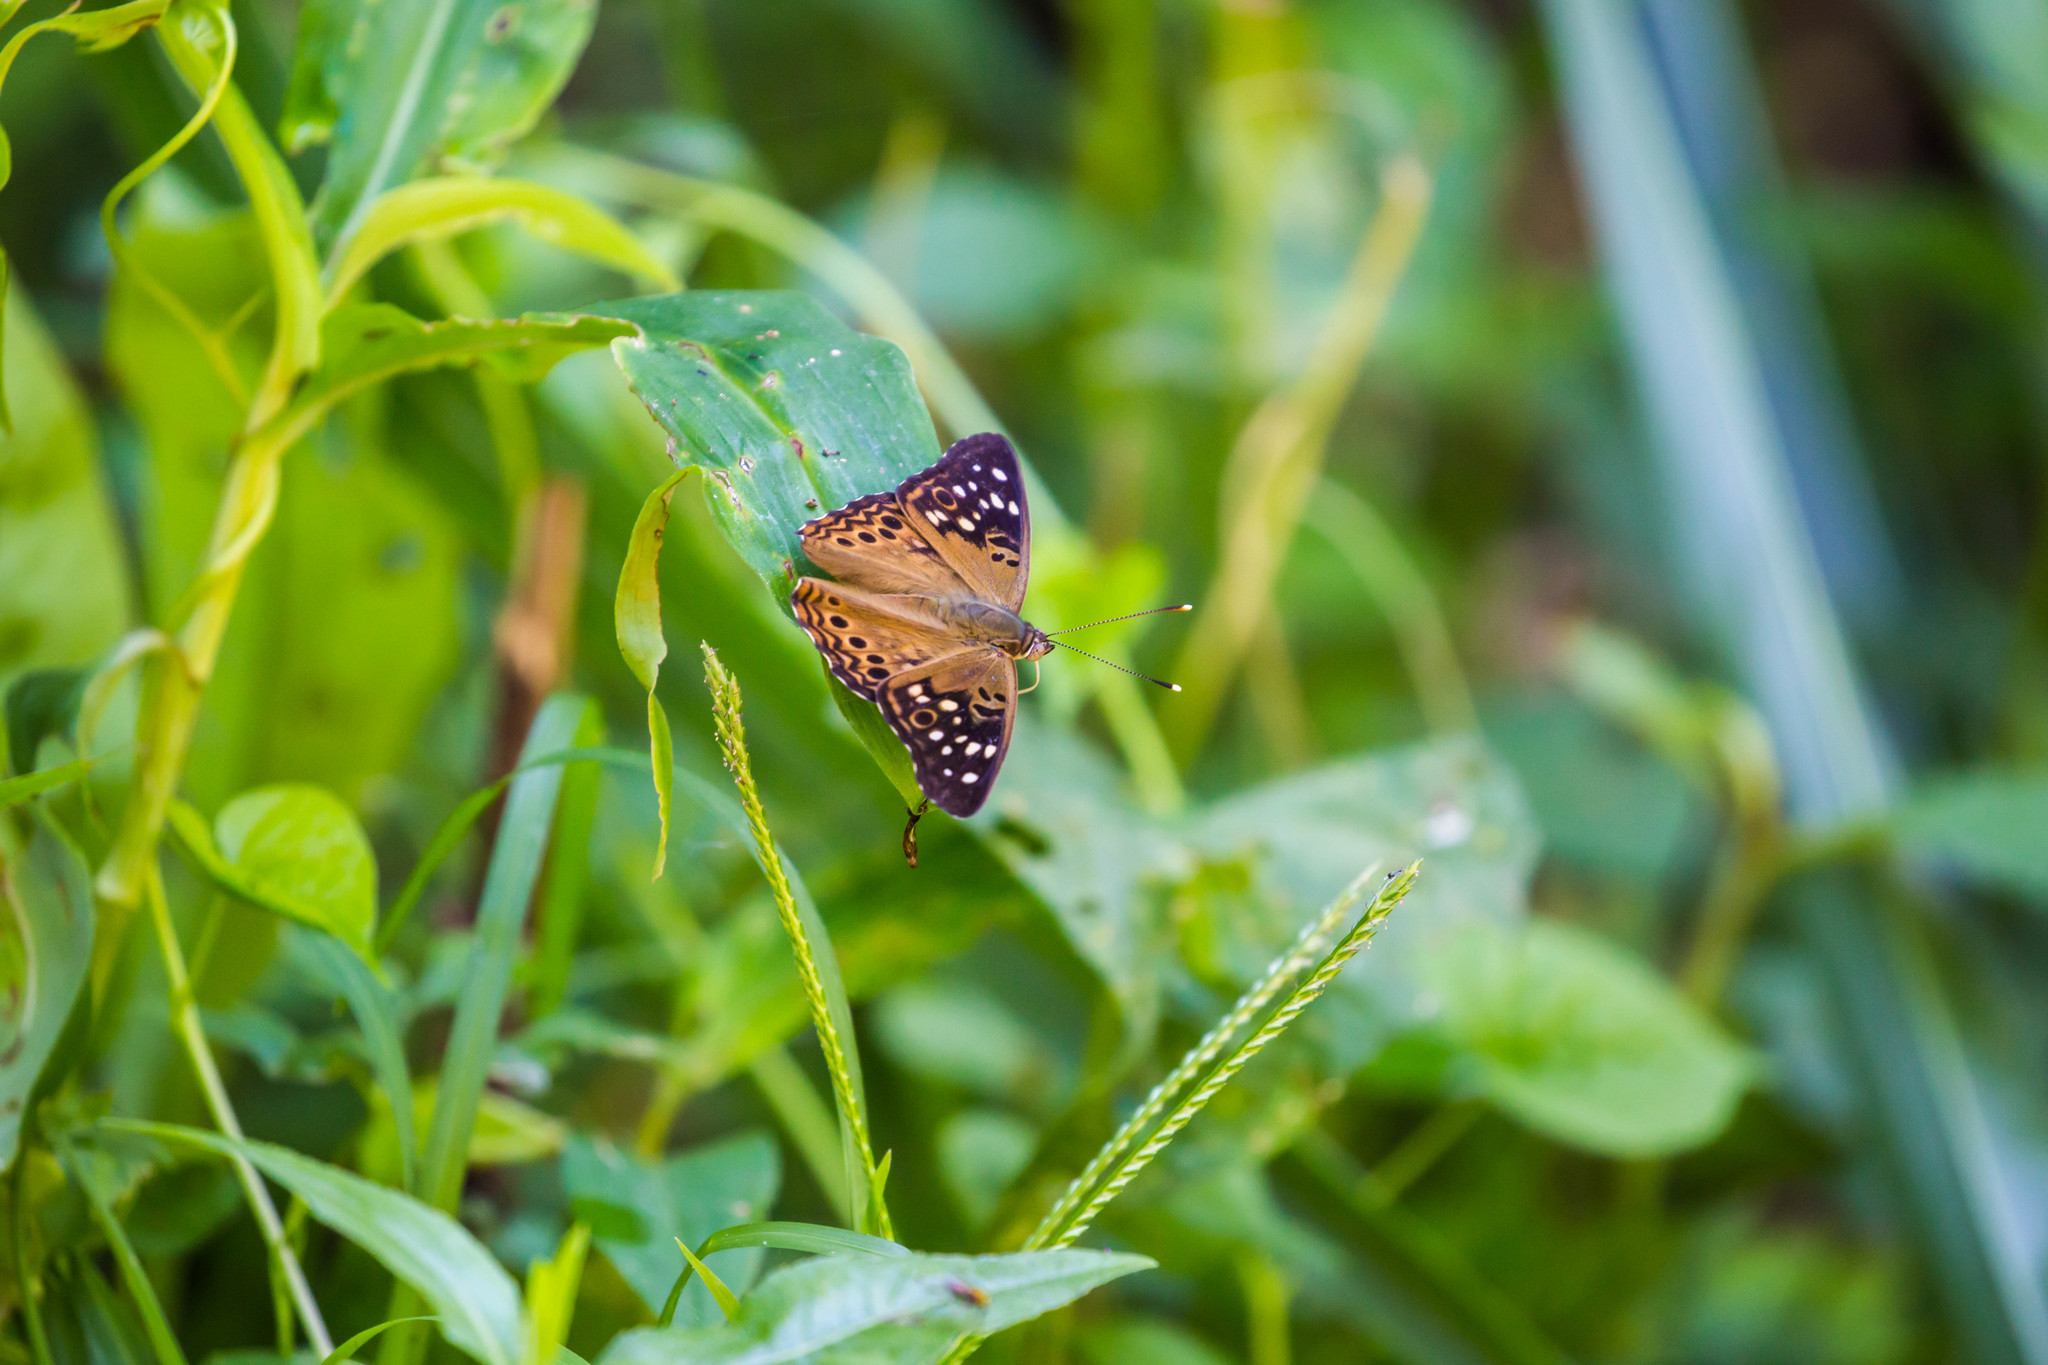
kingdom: Animalia
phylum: Arthropoda
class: Insecta
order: Lepidoptera
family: Nymphalidae
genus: Asterocampa
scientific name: Asterocampa celtis
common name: Hackberry emperor
